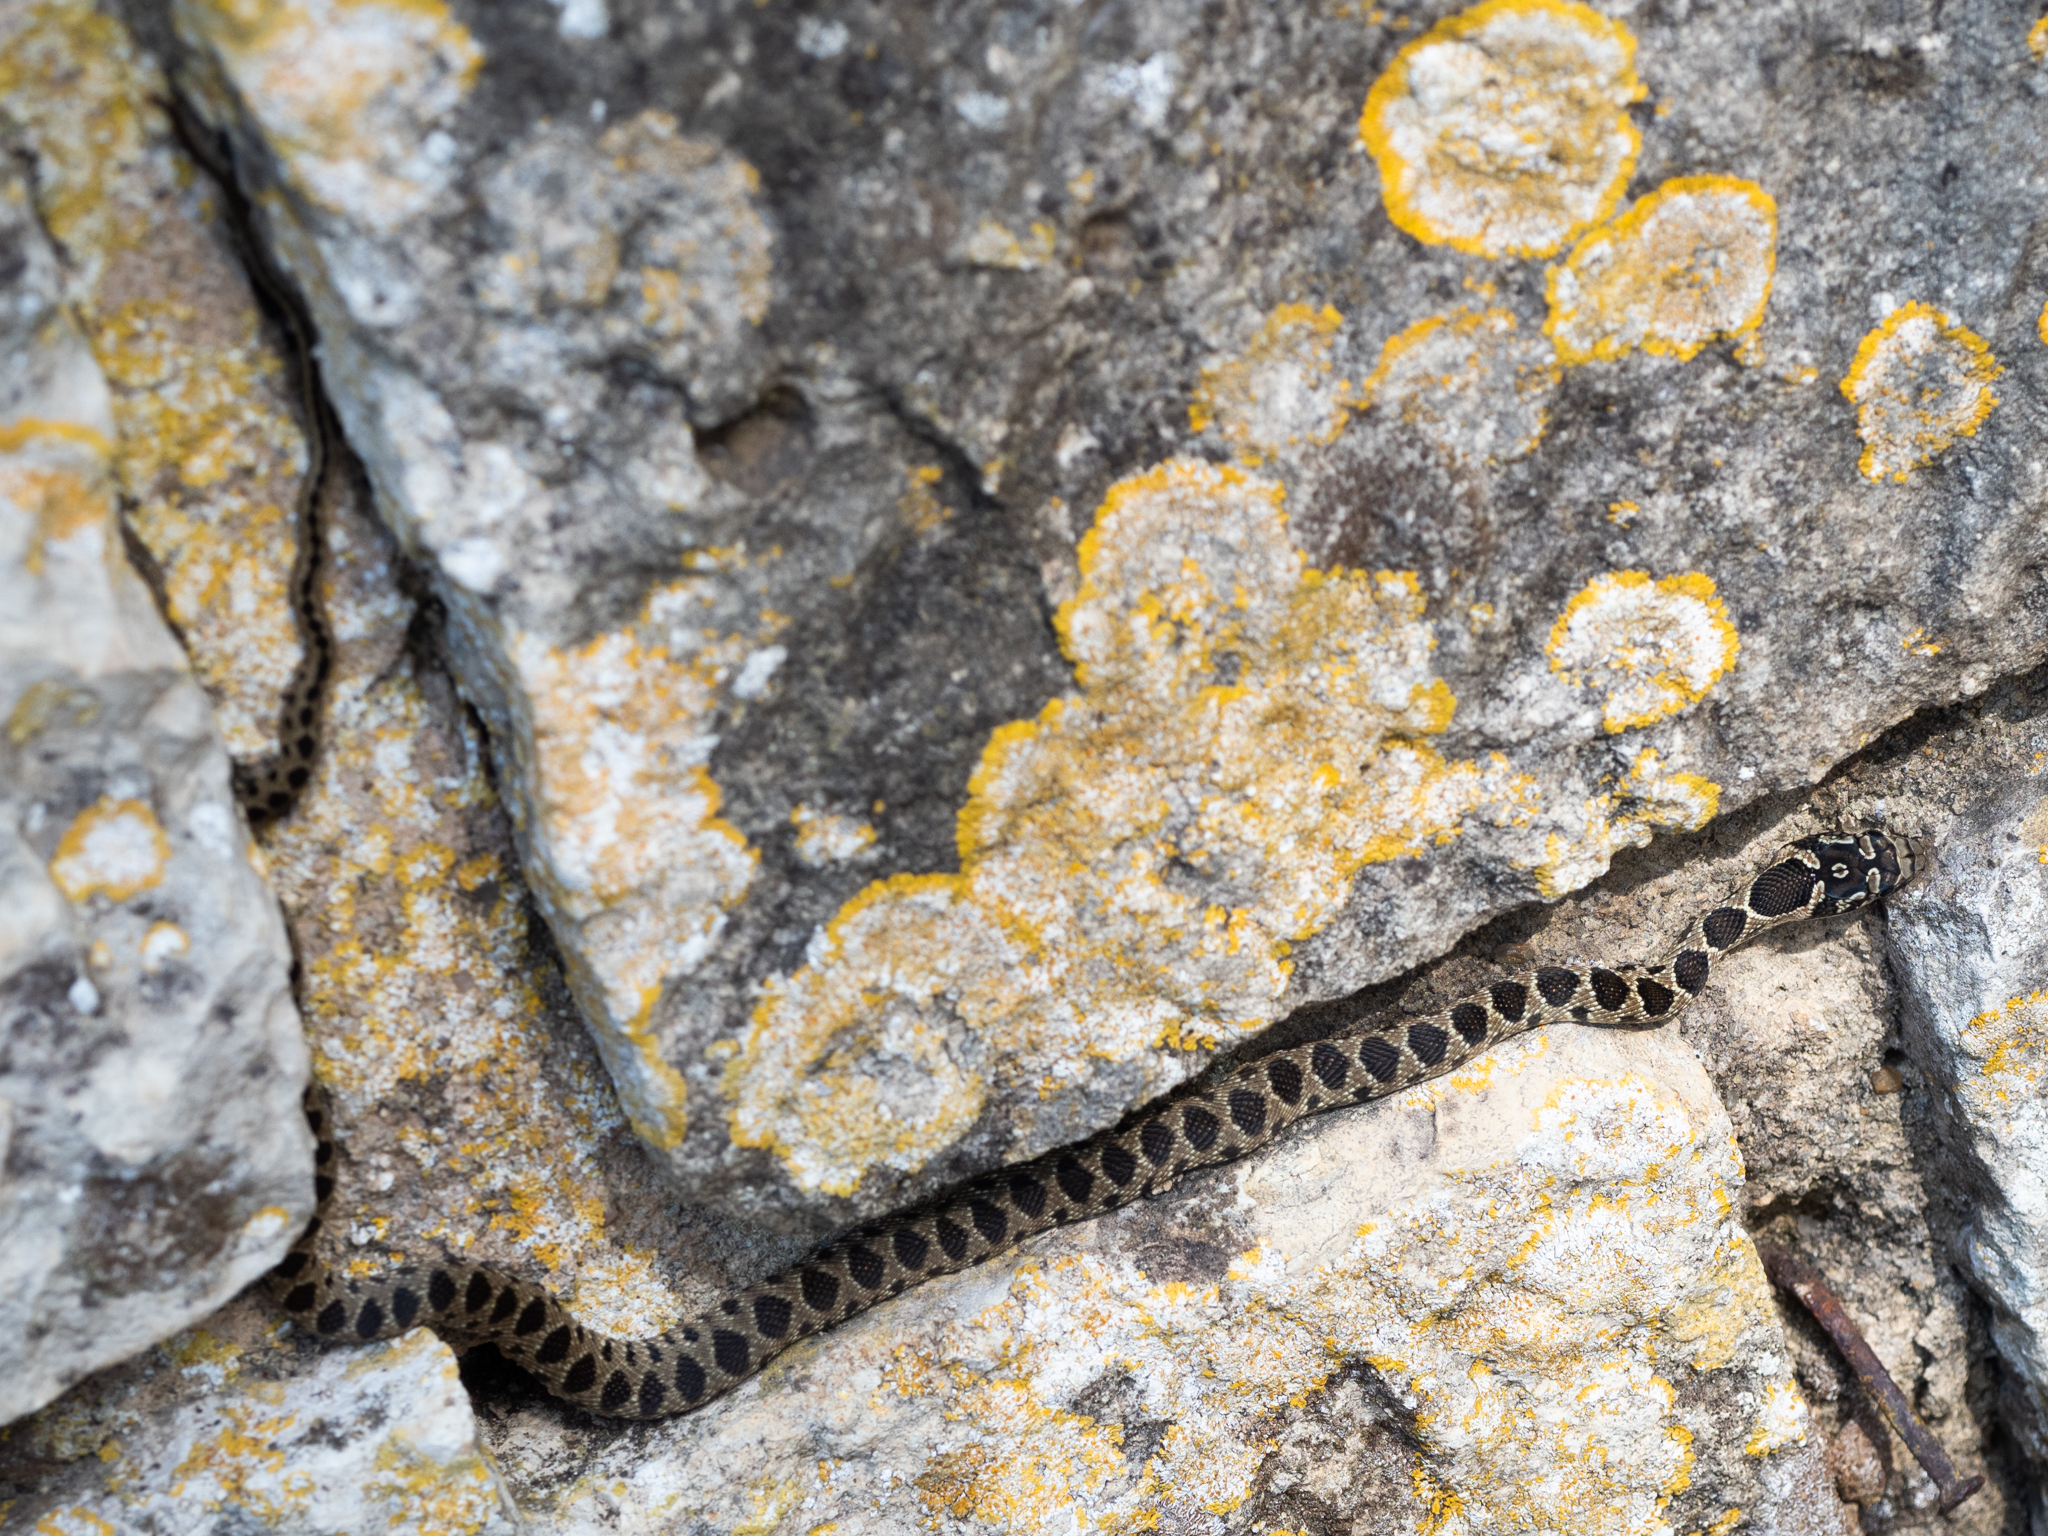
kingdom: Animalia
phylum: Chordata
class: Squamata
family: Colubridae
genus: Hemorrhois
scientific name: Hemorrhois hippocrepis
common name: Horseshoe whip snake
